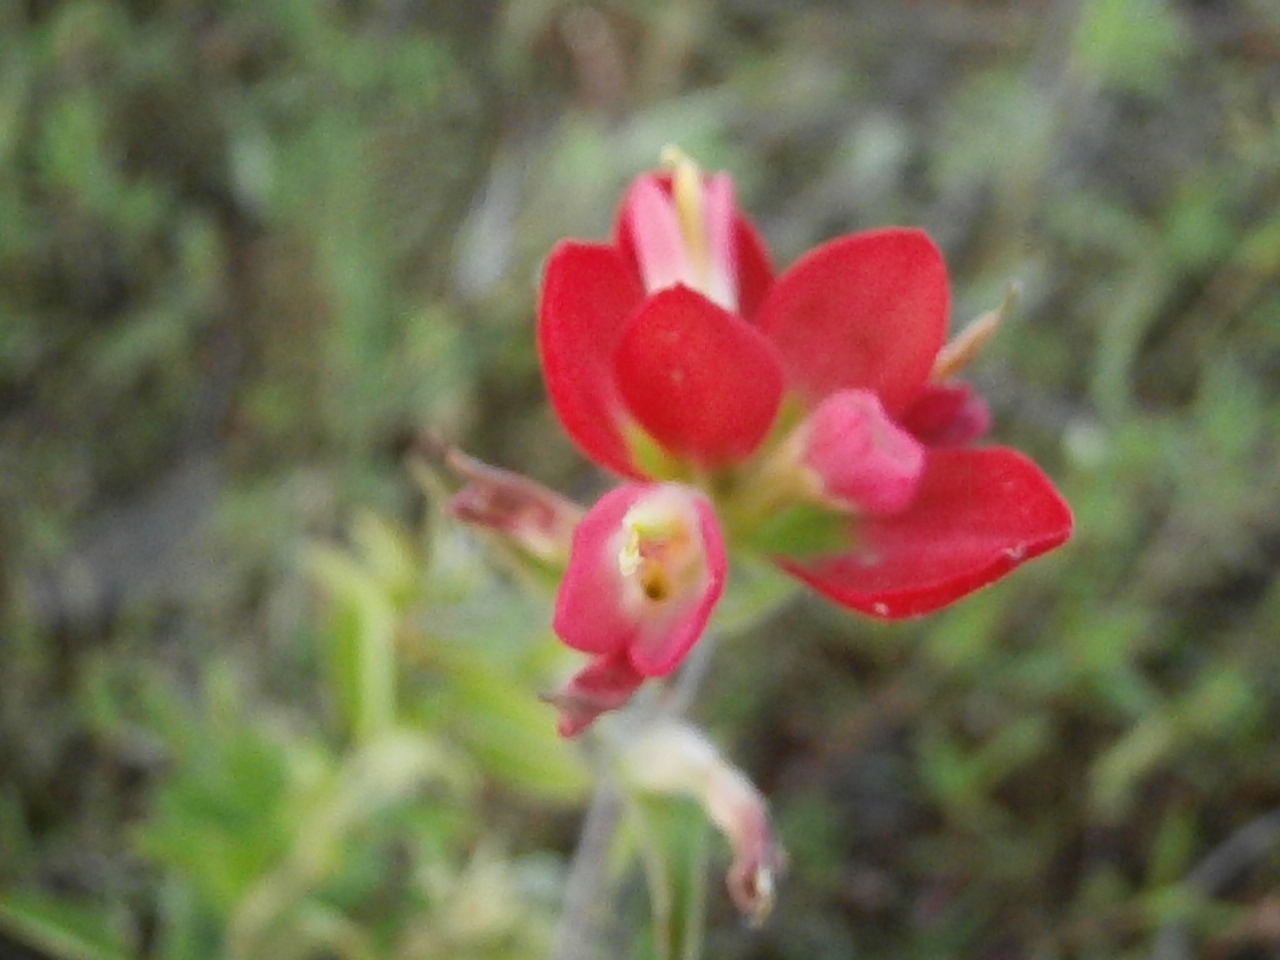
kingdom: Plantae
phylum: Tracheophyta
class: Magnoliopsida
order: Lamiales
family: Orobanchaceae
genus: Castilleja
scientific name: Castilleja indivisa
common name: Texas paintbrush
